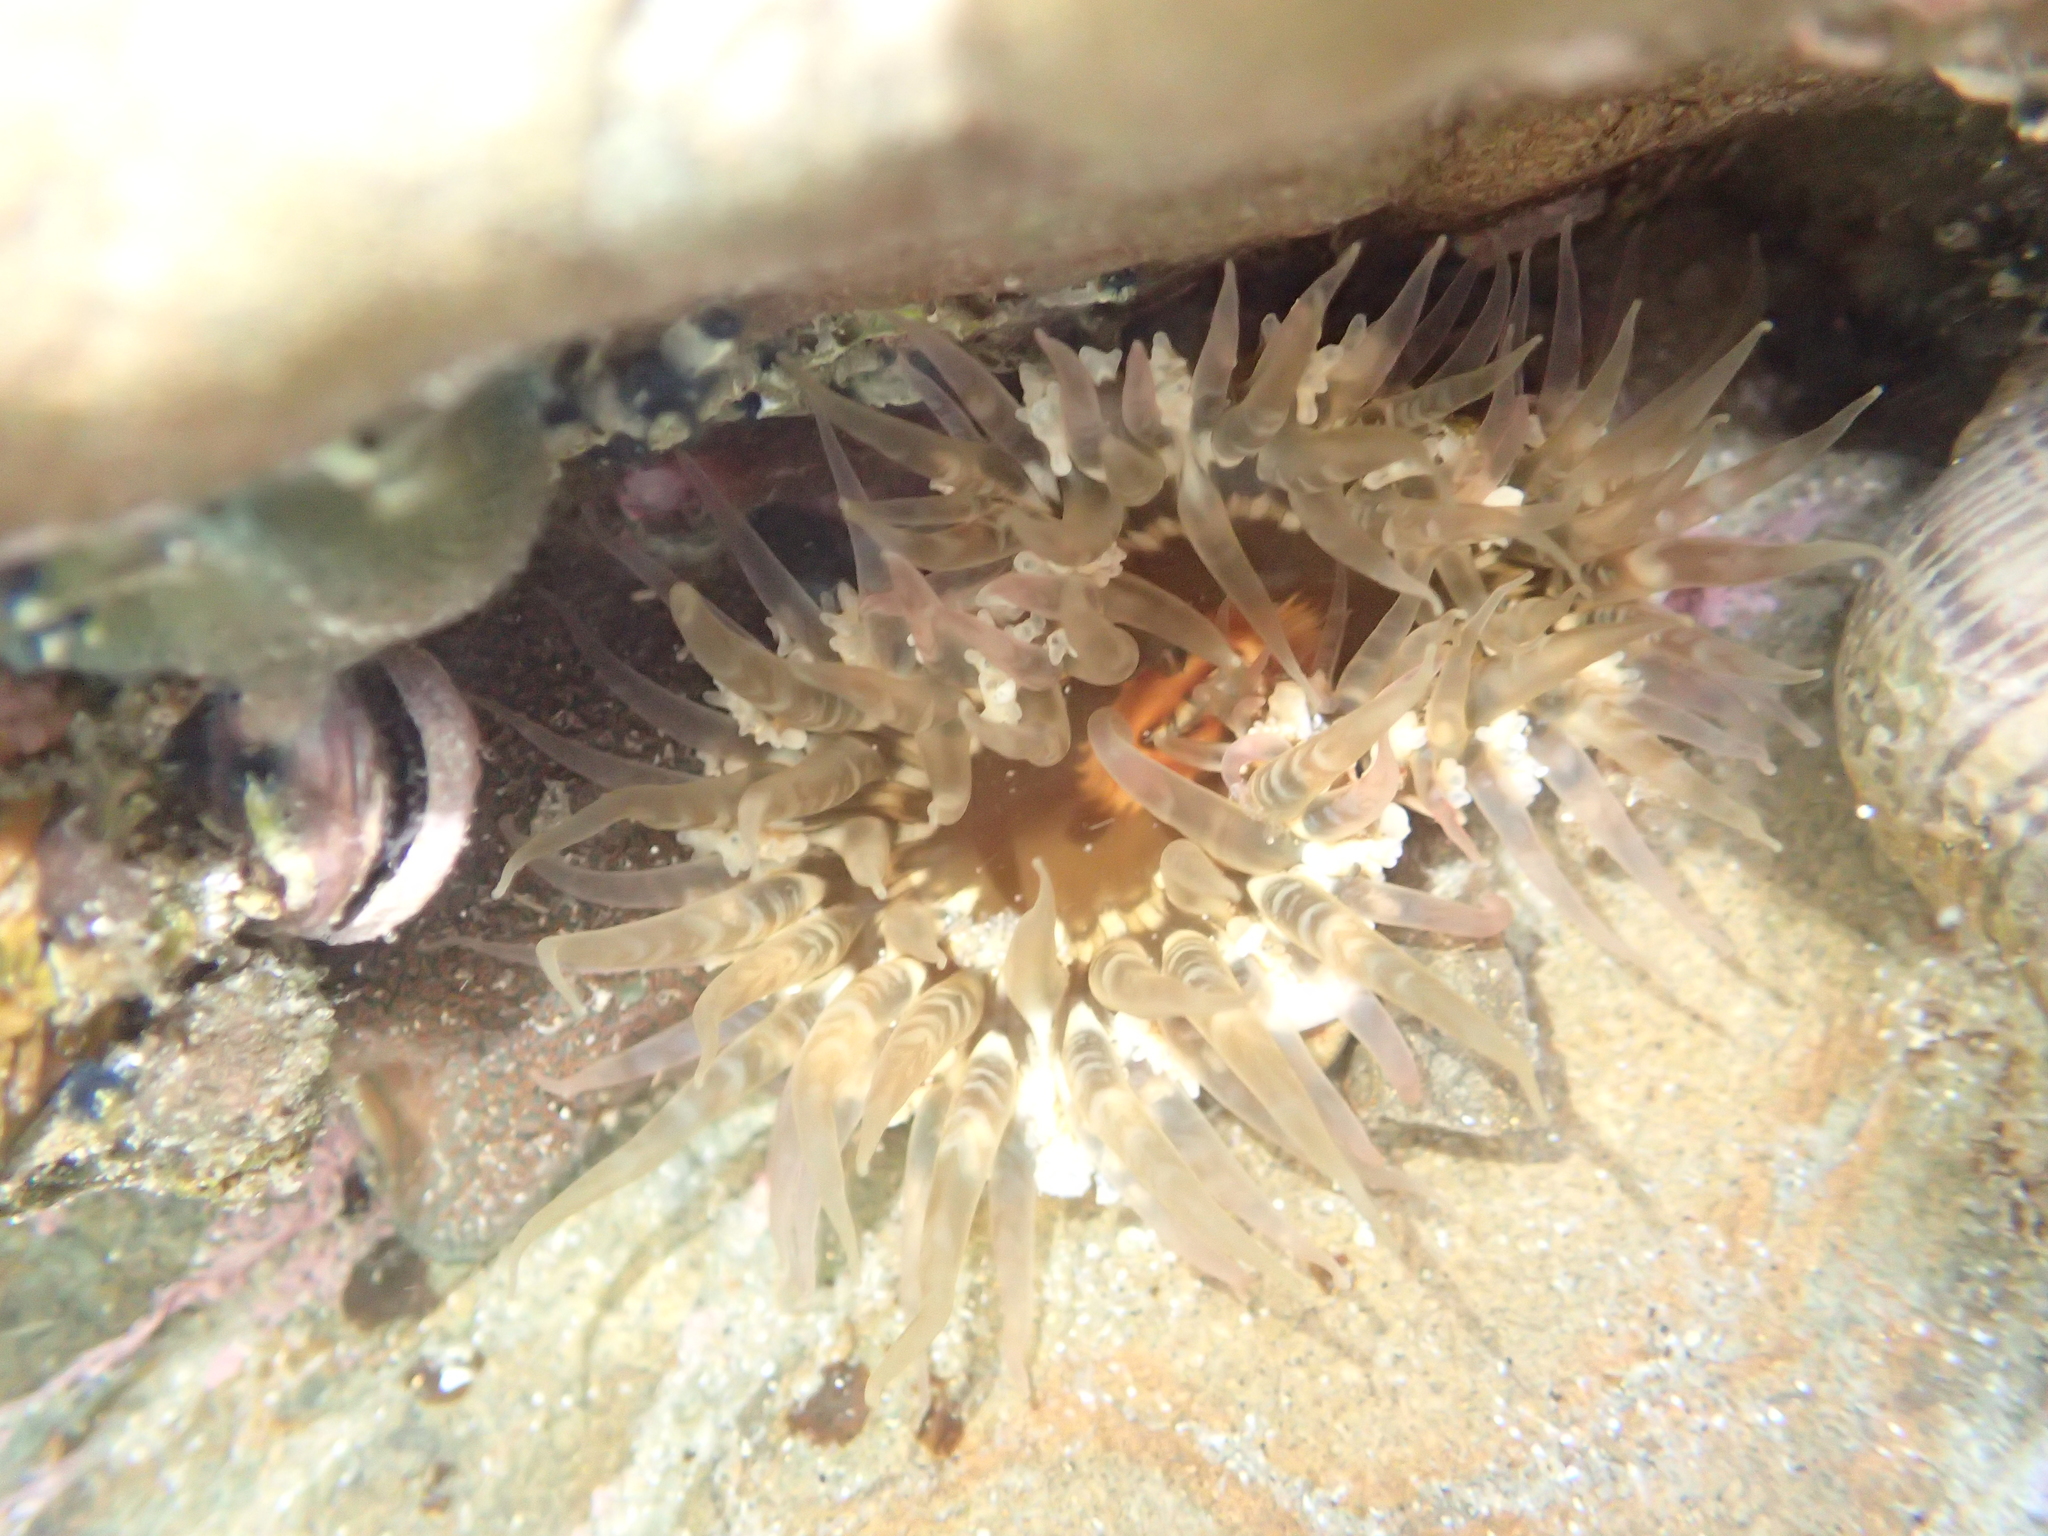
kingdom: Animalia
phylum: Cnidaria
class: Anthozoa
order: Actiniaria
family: Actiniidae
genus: Oulactis
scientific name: Oulactis muscosa
